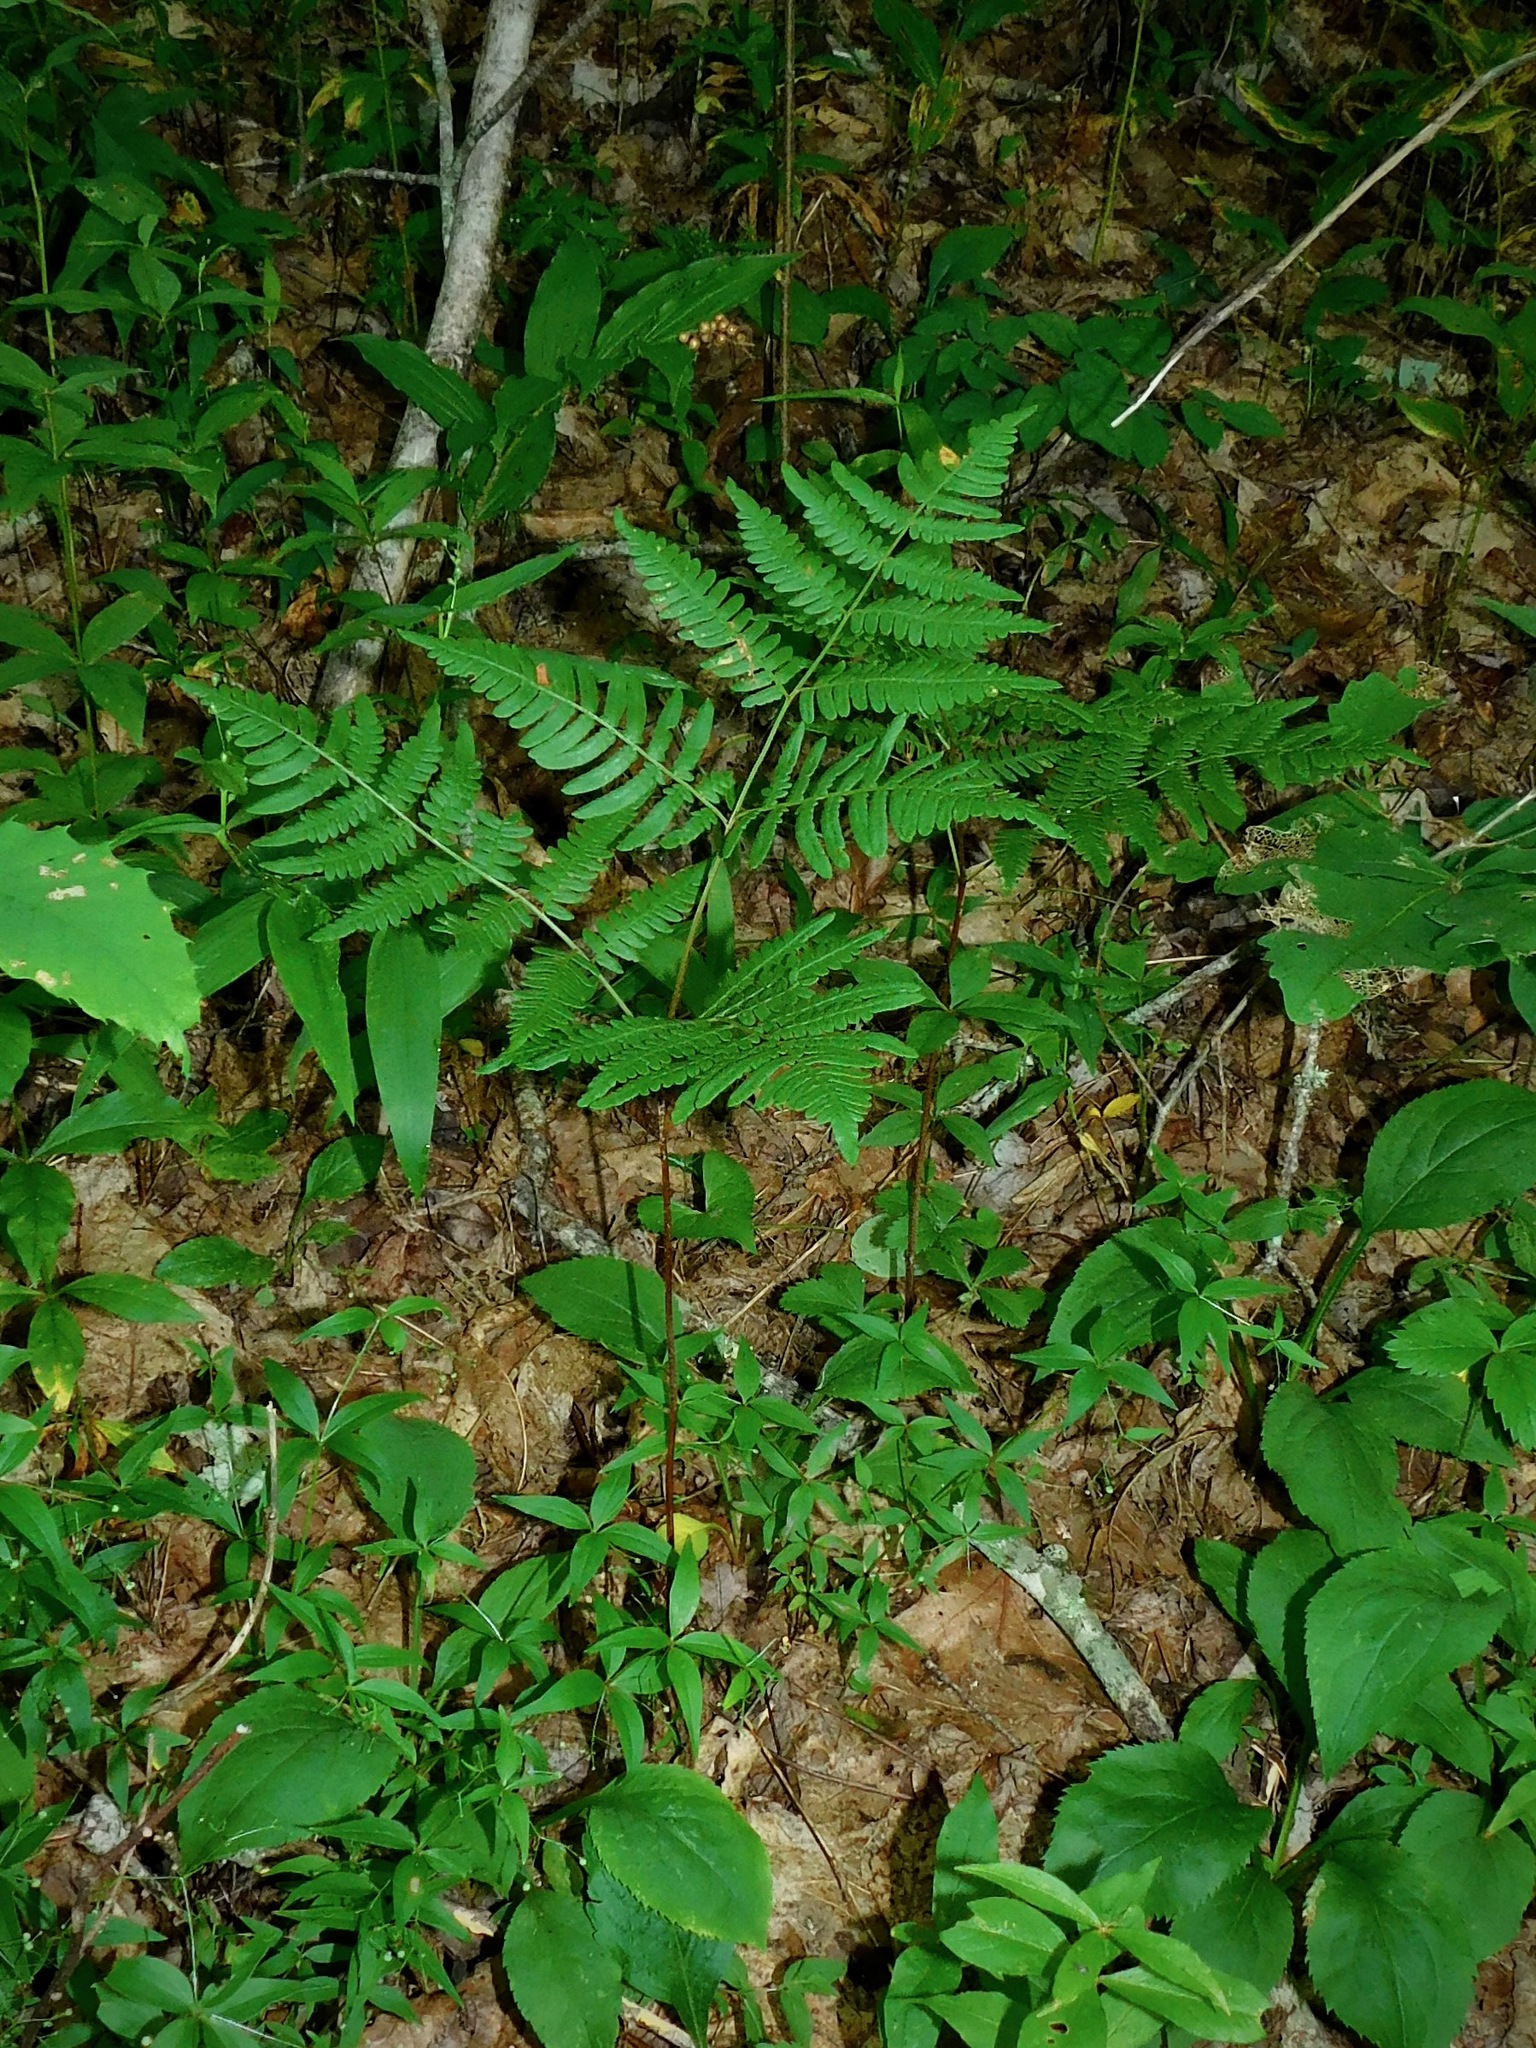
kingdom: Plantae
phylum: Tracheophyta
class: Polypodiopsida
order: Polypodiales
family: Dennstaedtiaceae
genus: Pteridium
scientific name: Pteridium aquilinum
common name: Bracken
